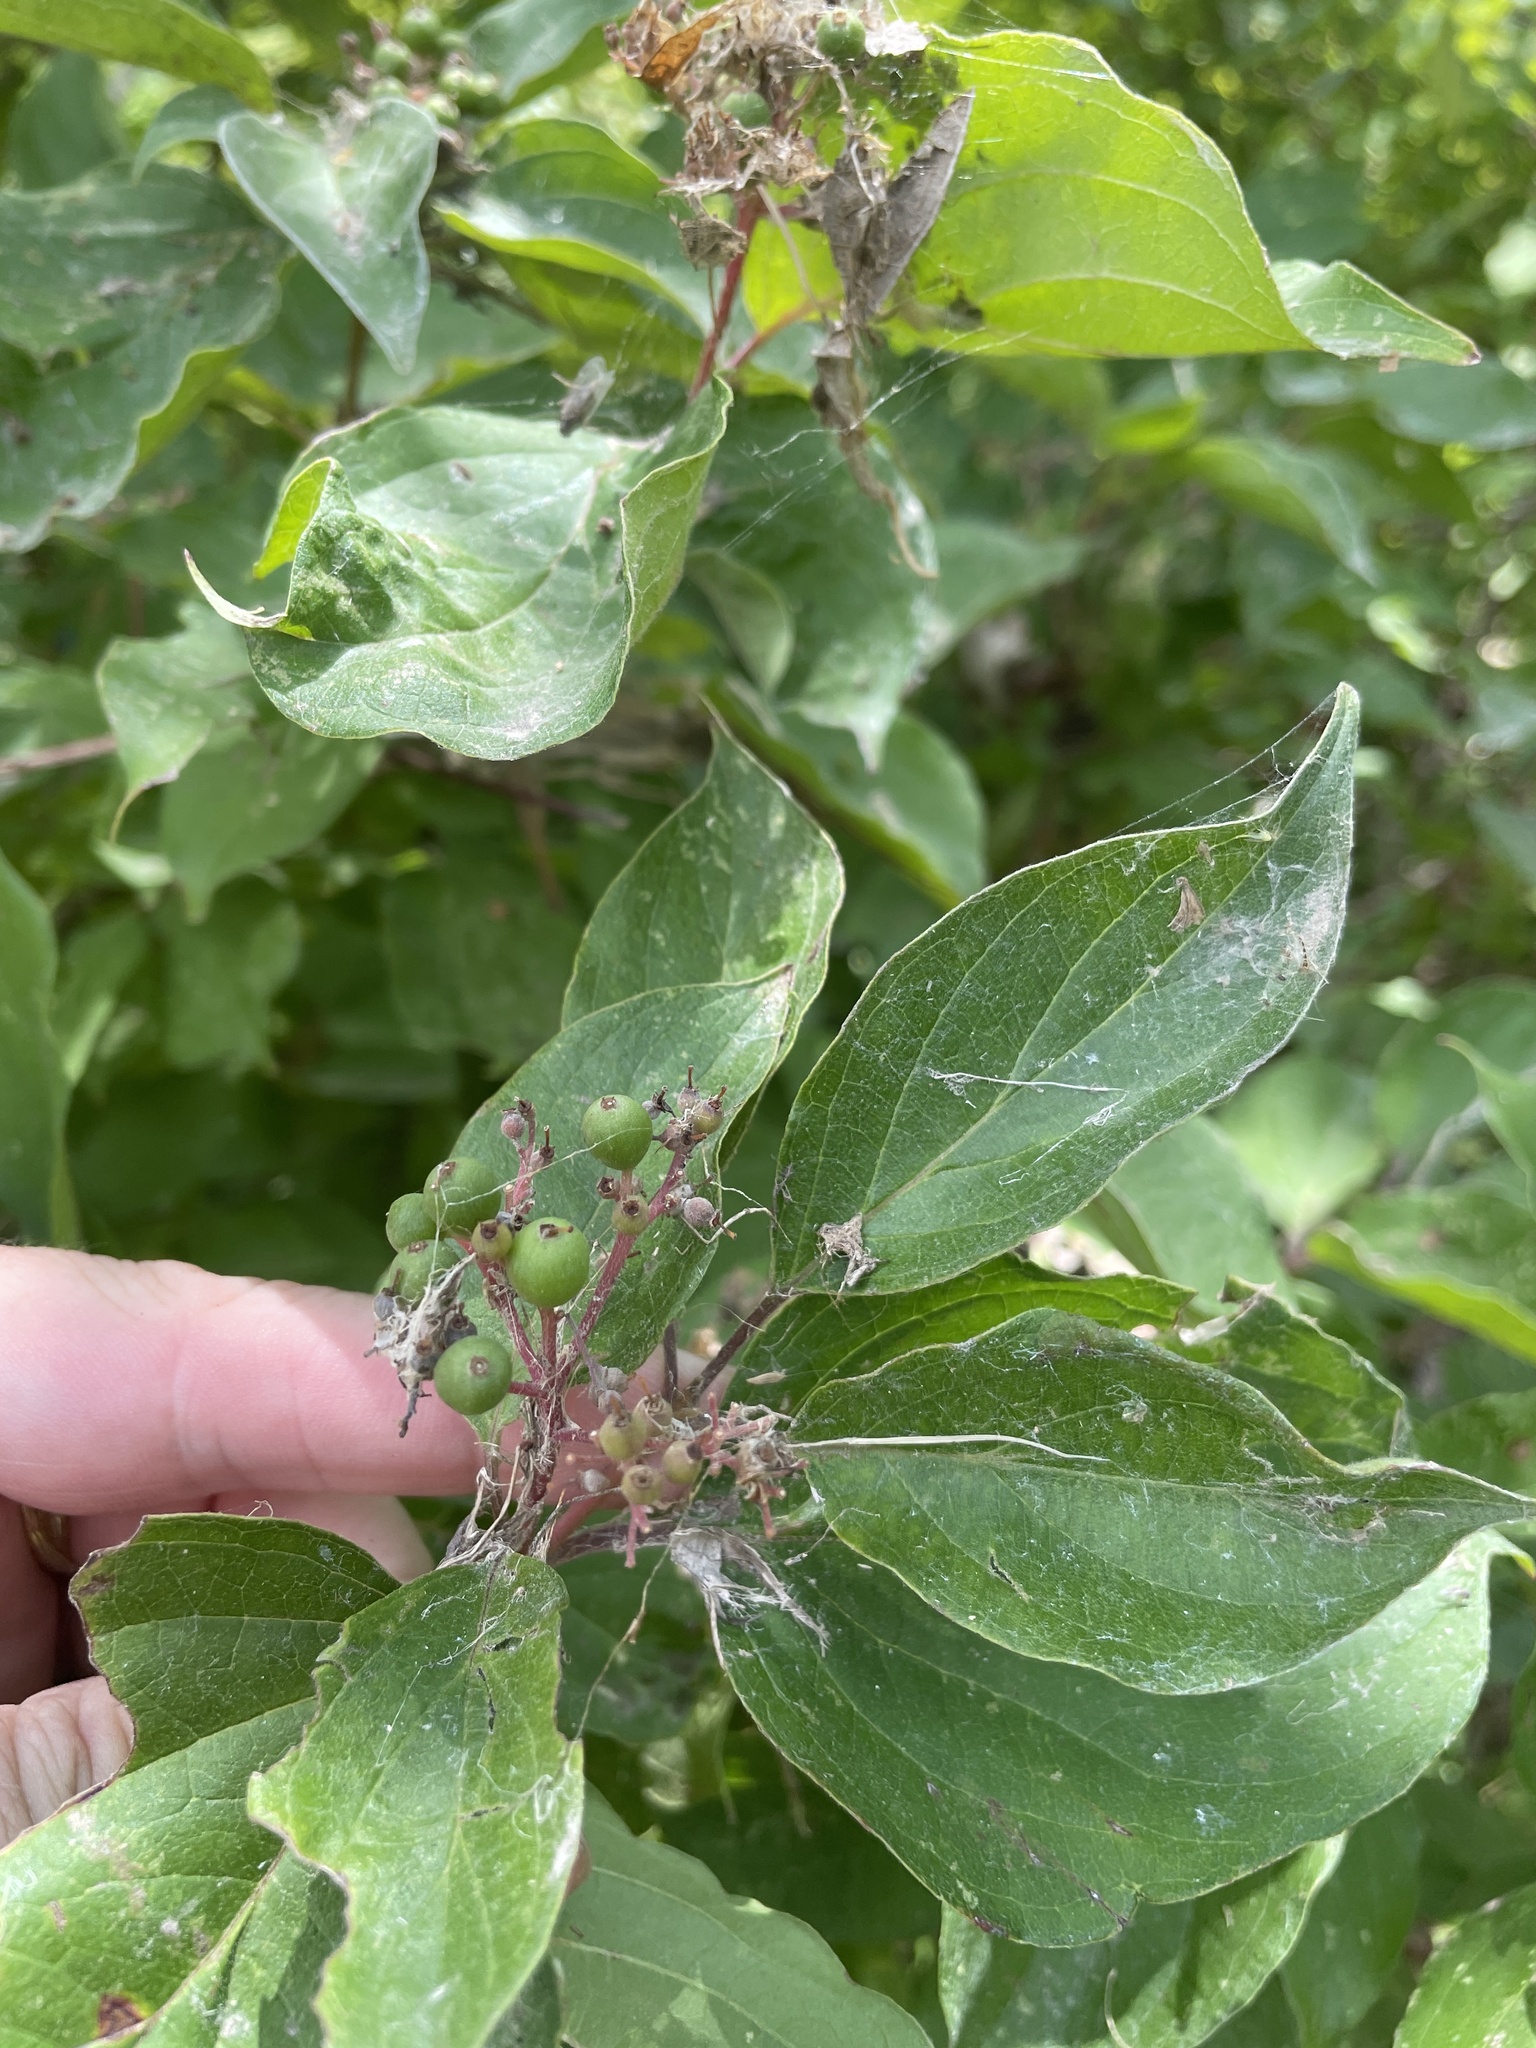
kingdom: Plantae
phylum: Tracheophyta
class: Magnoliopsida
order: Cornales
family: Cornaceae
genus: Cornus
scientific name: Cornus drummondii
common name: Rough-leaf dogwood
